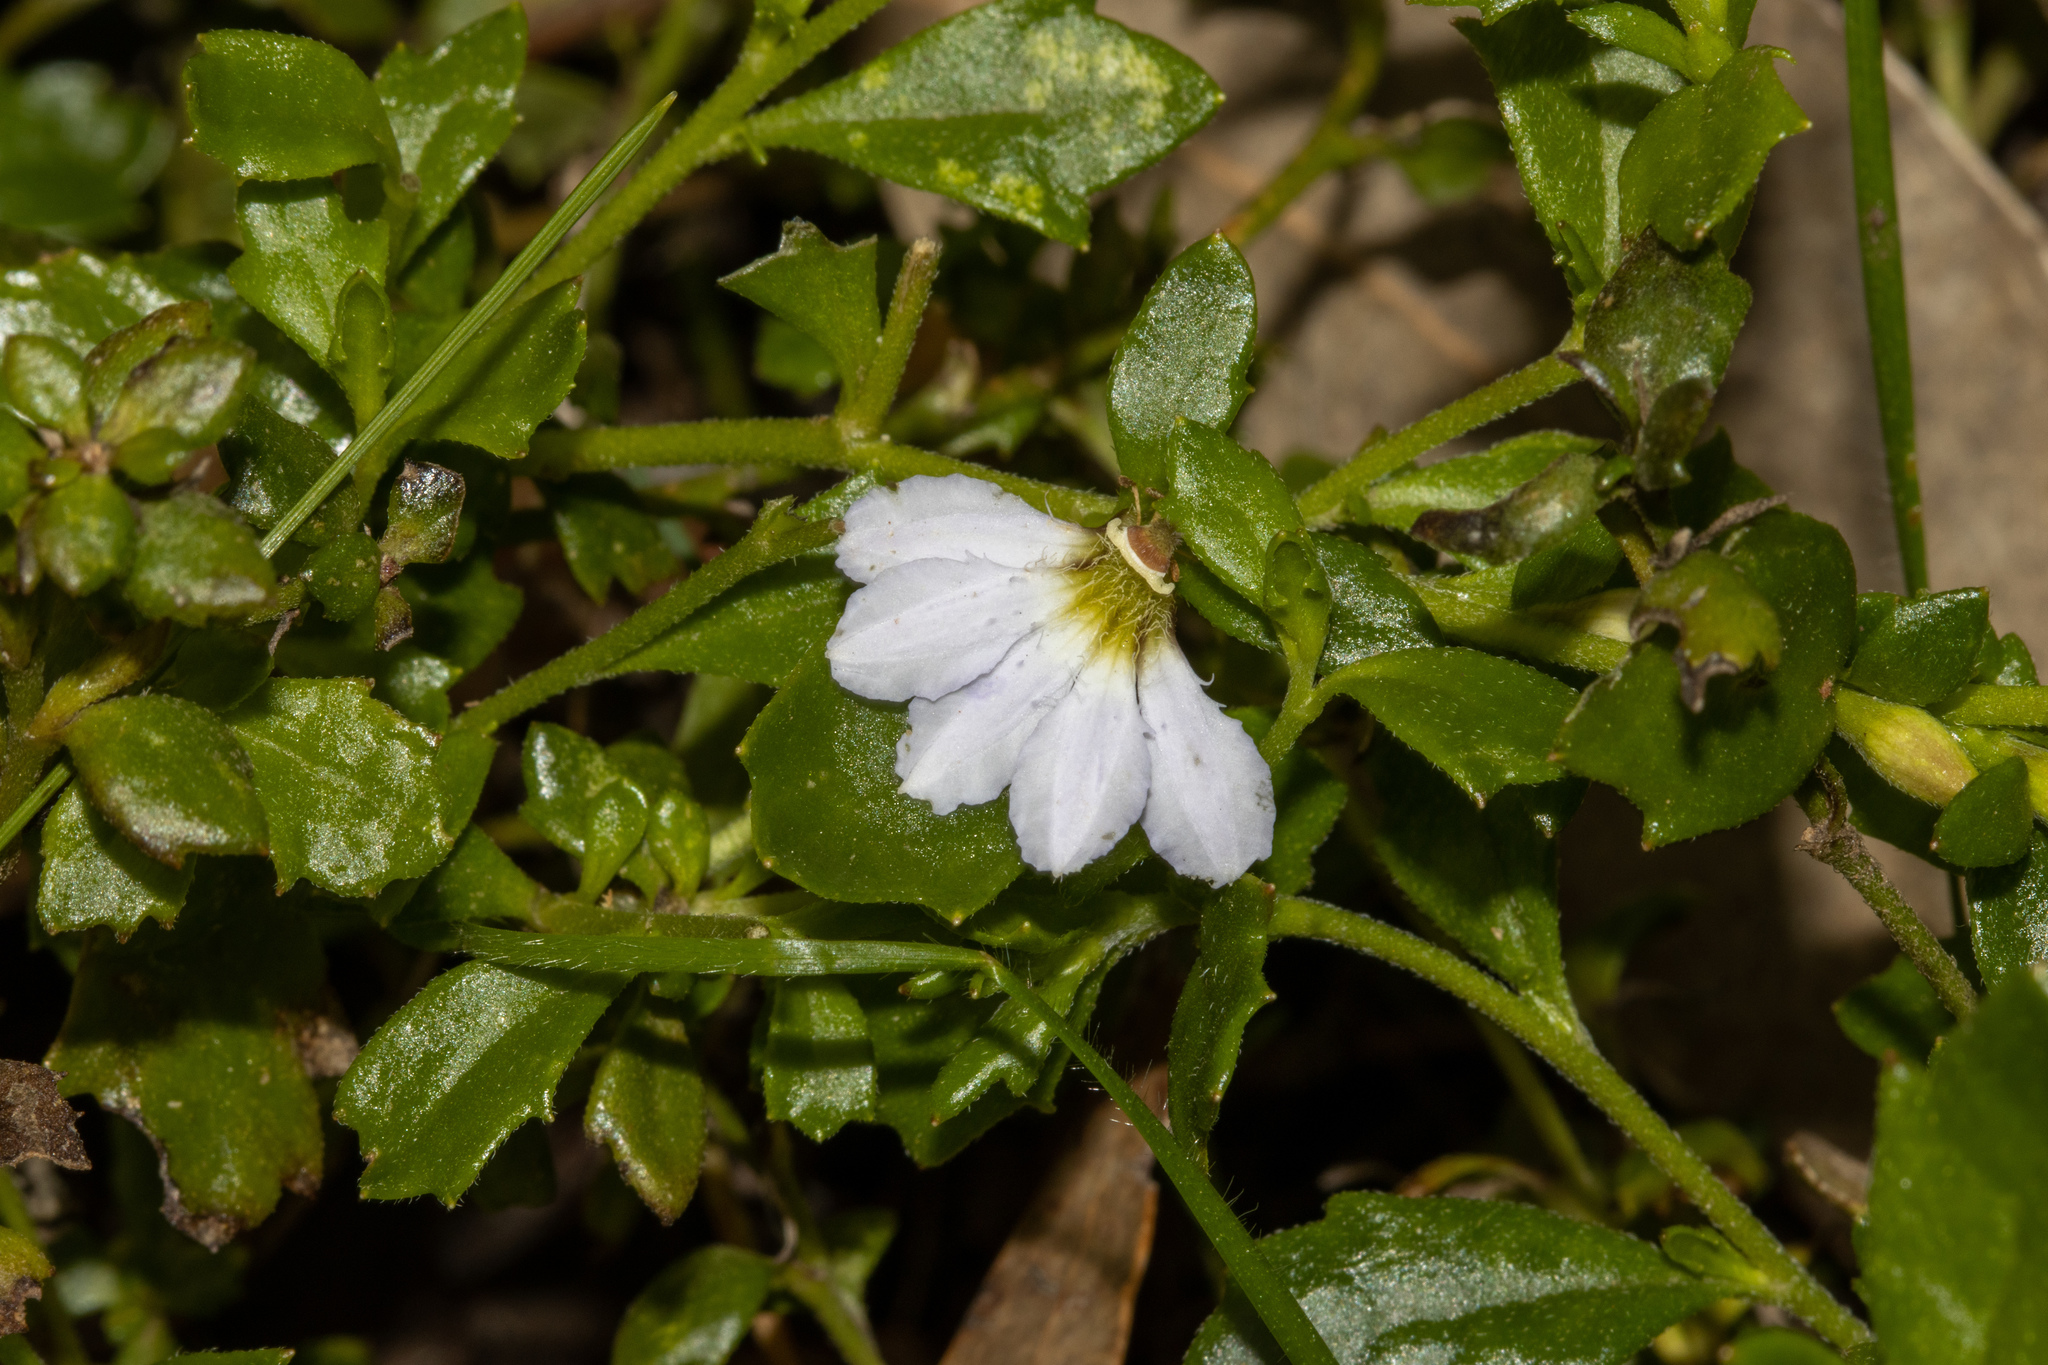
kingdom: Plantae
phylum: Tracheophyta
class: Magnoliopsida
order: Asterales
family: Goodeniaceae
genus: Scaevola
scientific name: Scaevola albida
